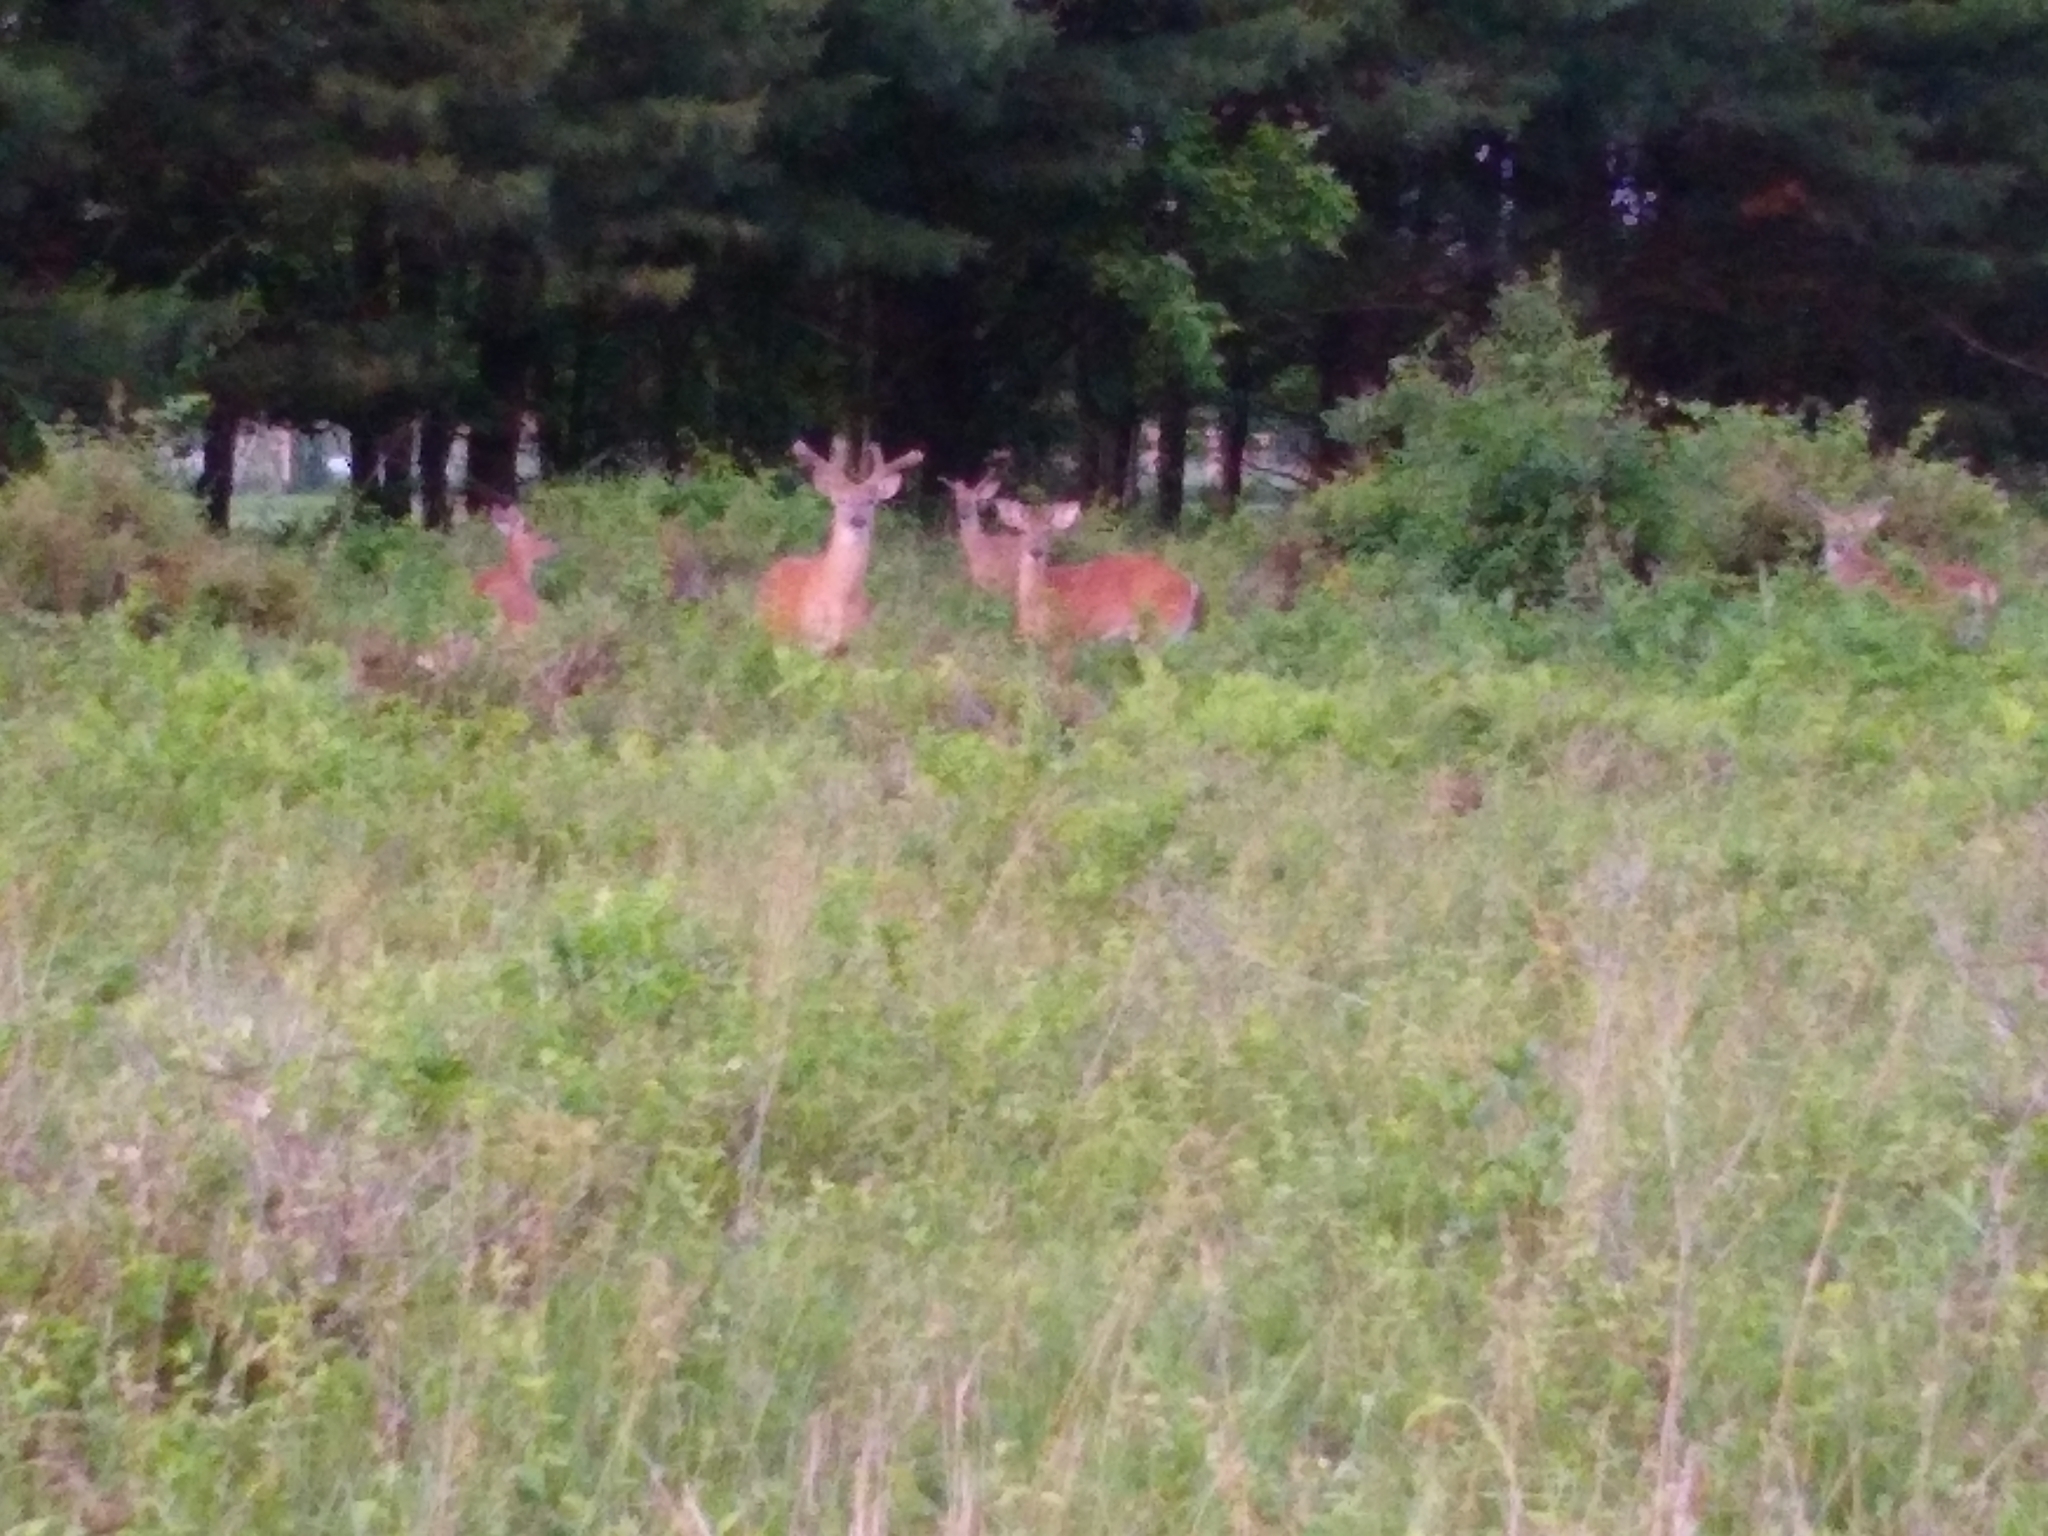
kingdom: Animalia
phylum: Chordata
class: Mammalia
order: Artiodactyla
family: Cervidae
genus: Odocoileus
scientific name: Odocoileus virginianus
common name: White-tailed deer
